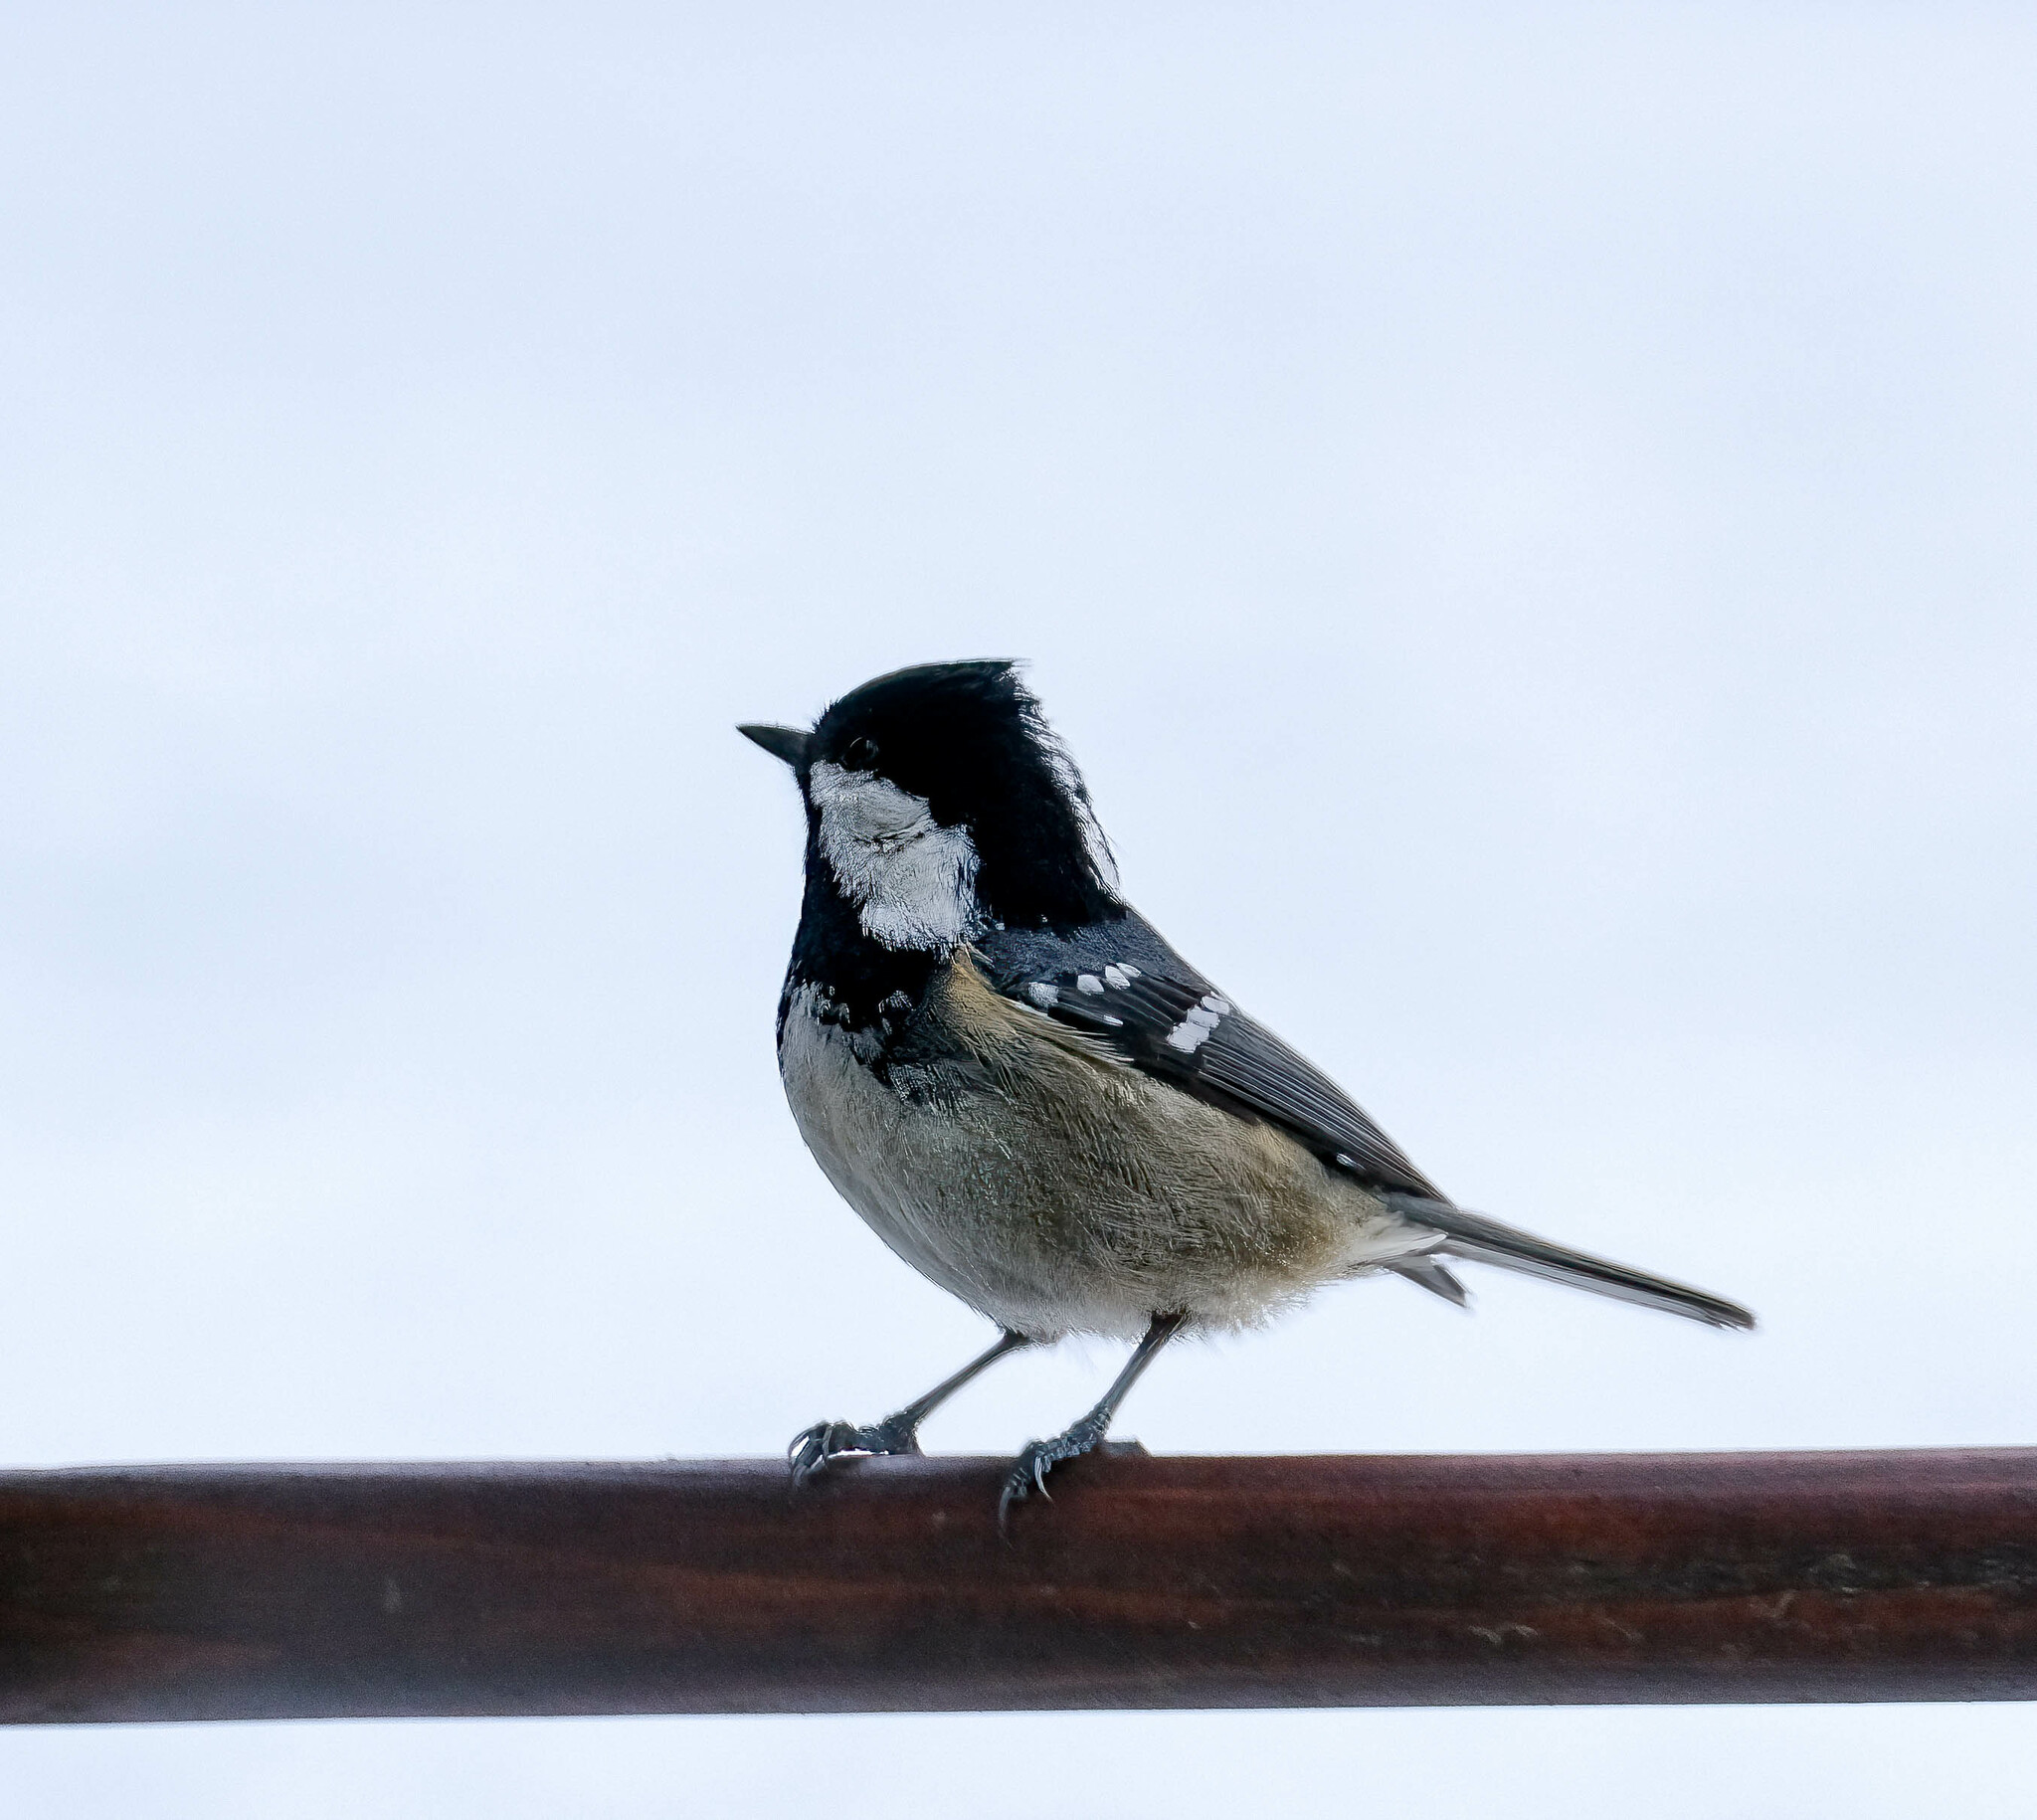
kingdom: Animalia
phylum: Chordata
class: Aves
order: Passeriformes
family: Paridae
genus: Periparus
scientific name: Periparus ater
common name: Coal tit
